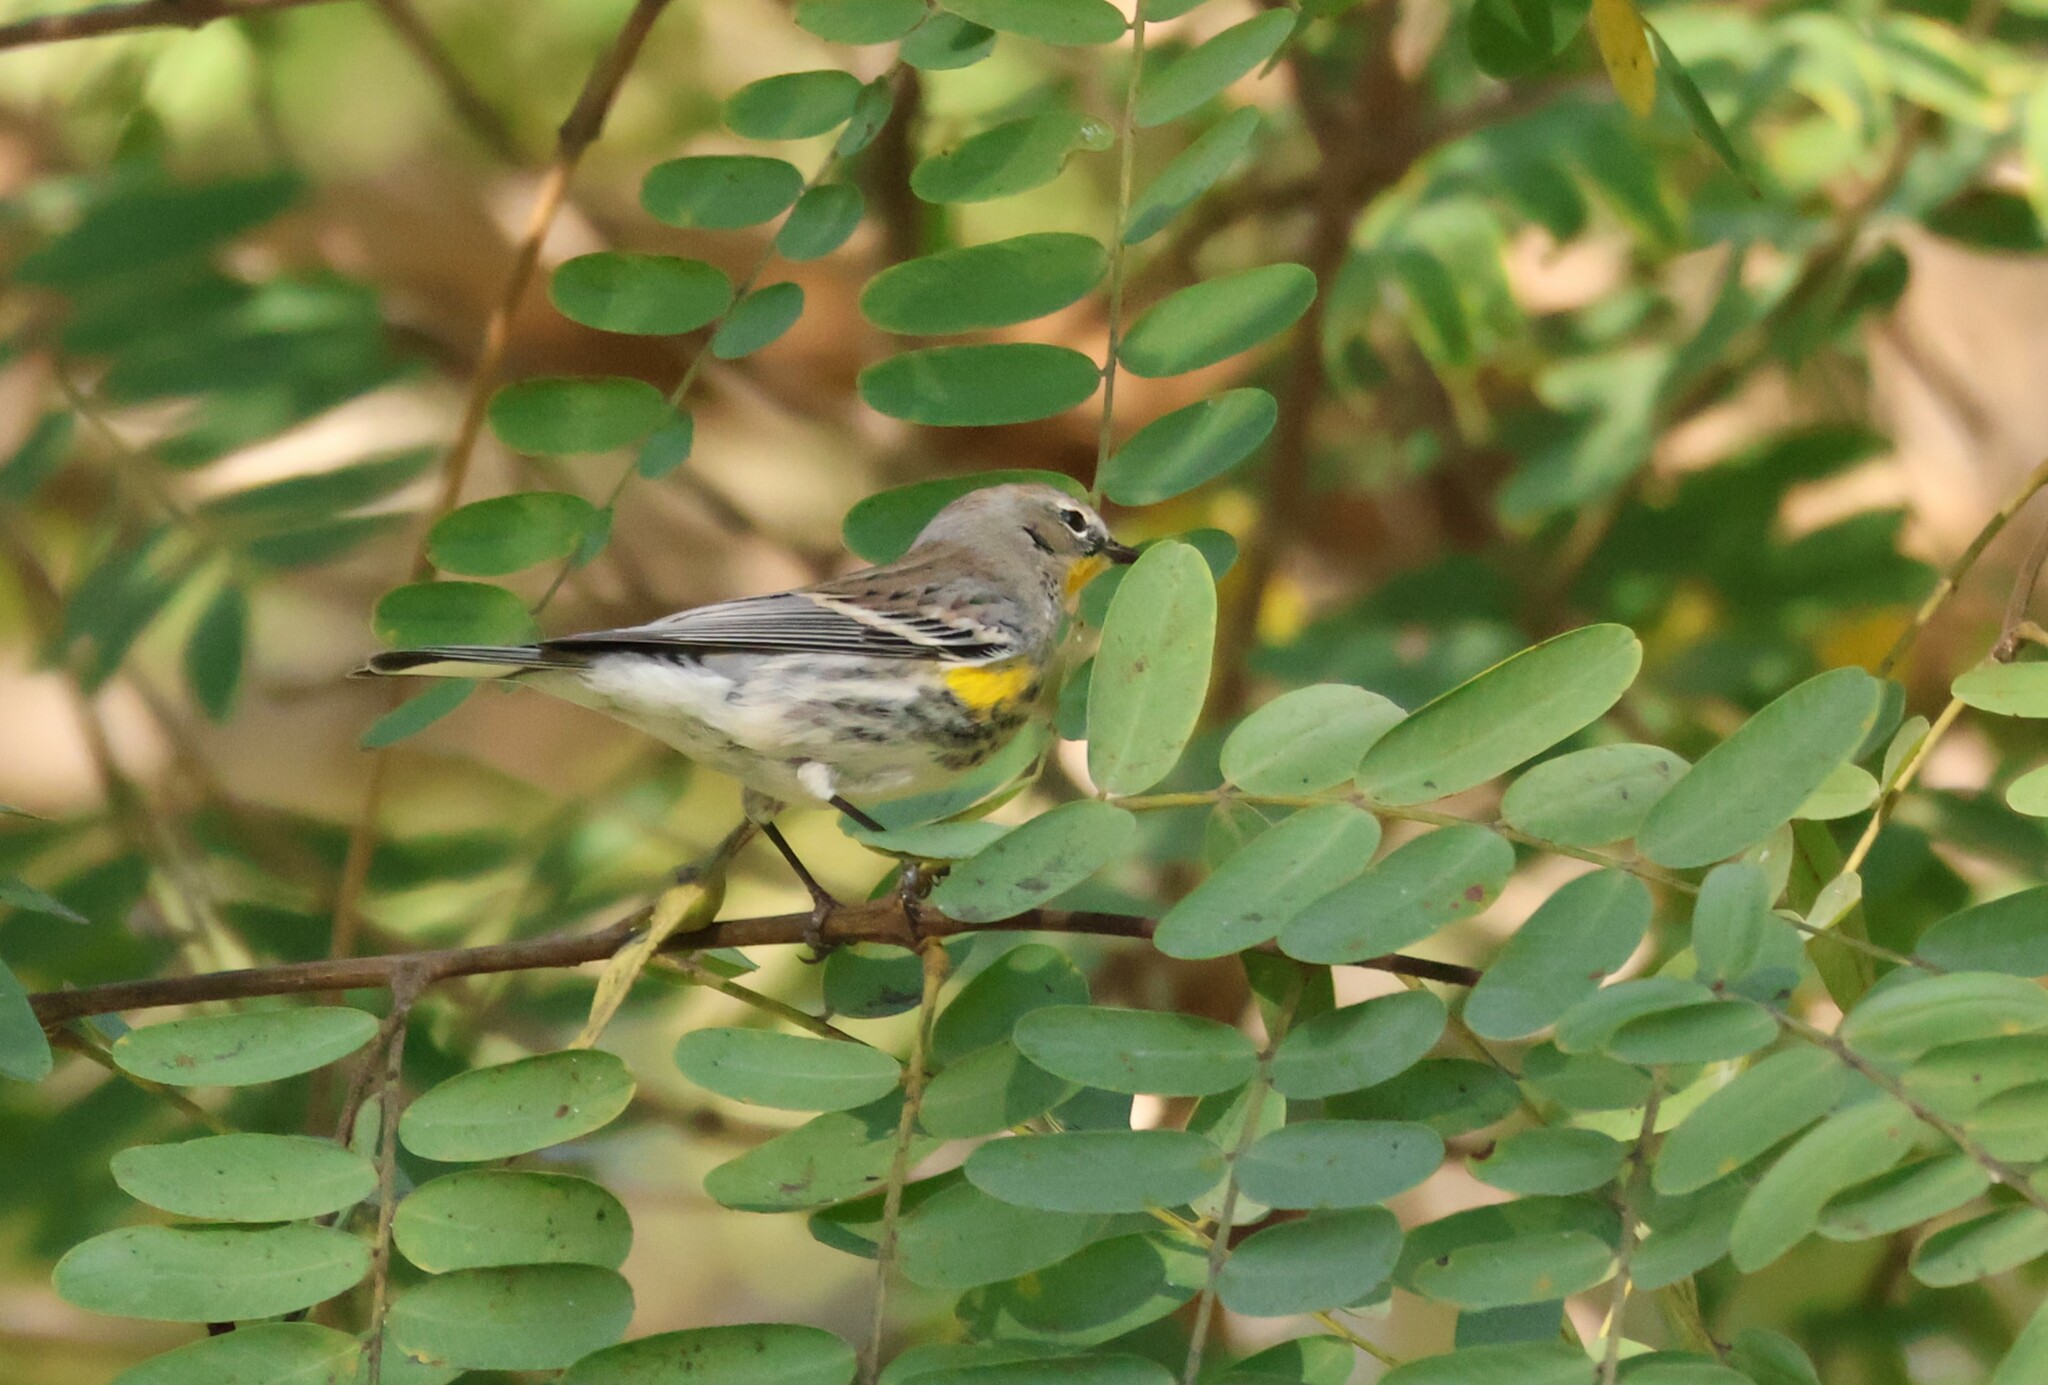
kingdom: Animalia
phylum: Chordata
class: Aves
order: Passeriformes
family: Parulidae
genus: Setophaga
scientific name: Setophaga coronata
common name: Myrtle warbler
